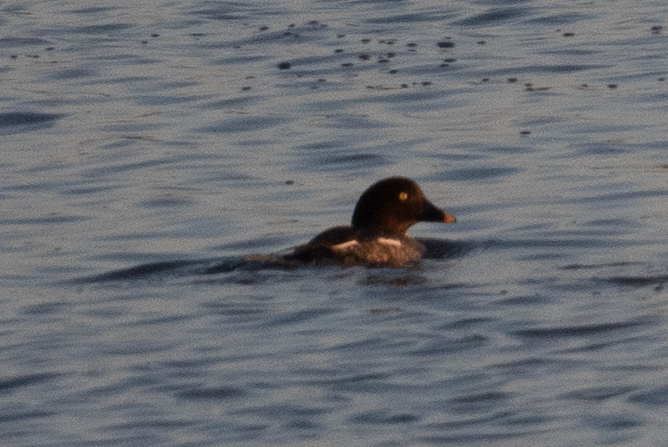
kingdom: Animalia
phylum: Chordata
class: Aves
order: Anseriformes
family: Anatidae
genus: Bucephala
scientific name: Bucephala clangula
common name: Common goldeneye
